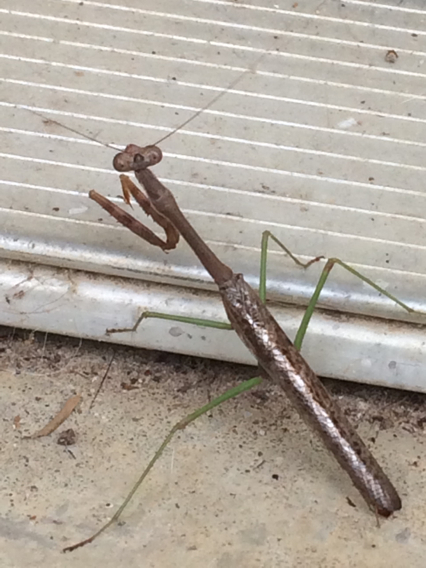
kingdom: Animalia
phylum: Arthropoda
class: Insecta
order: Mantodea
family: Mantidae
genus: Stagmomantis
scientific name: Stagmomantis carolina
